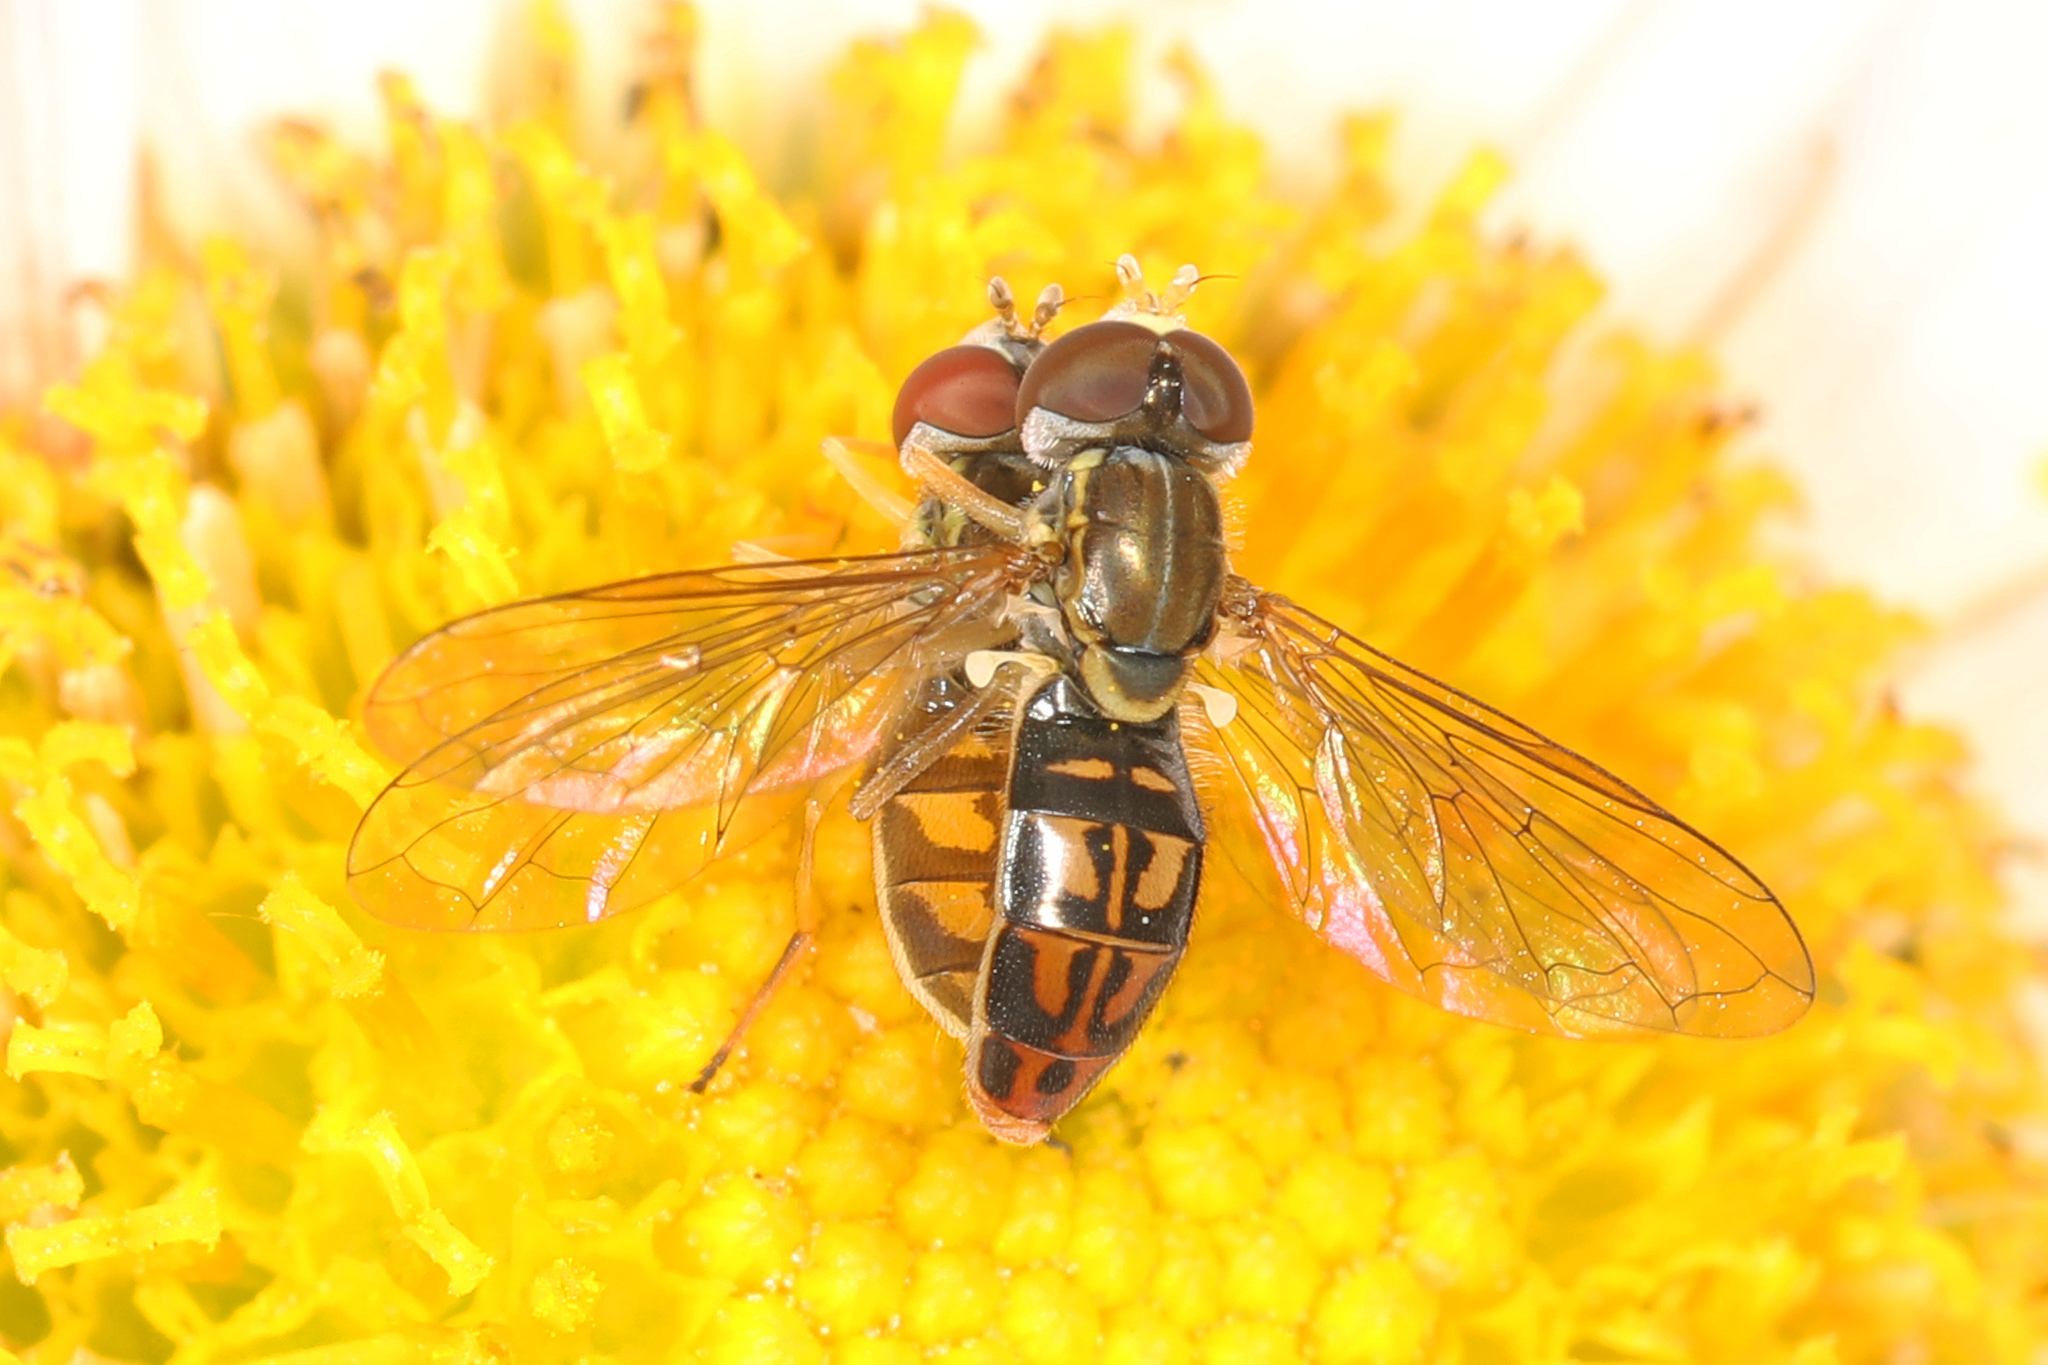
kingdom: Animalia
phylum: Arthropoda
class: Insecta
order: Diptera
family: Syrphidae
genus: Toxomerus
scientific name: Toxomerus marginatus
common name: Syrphid fly
